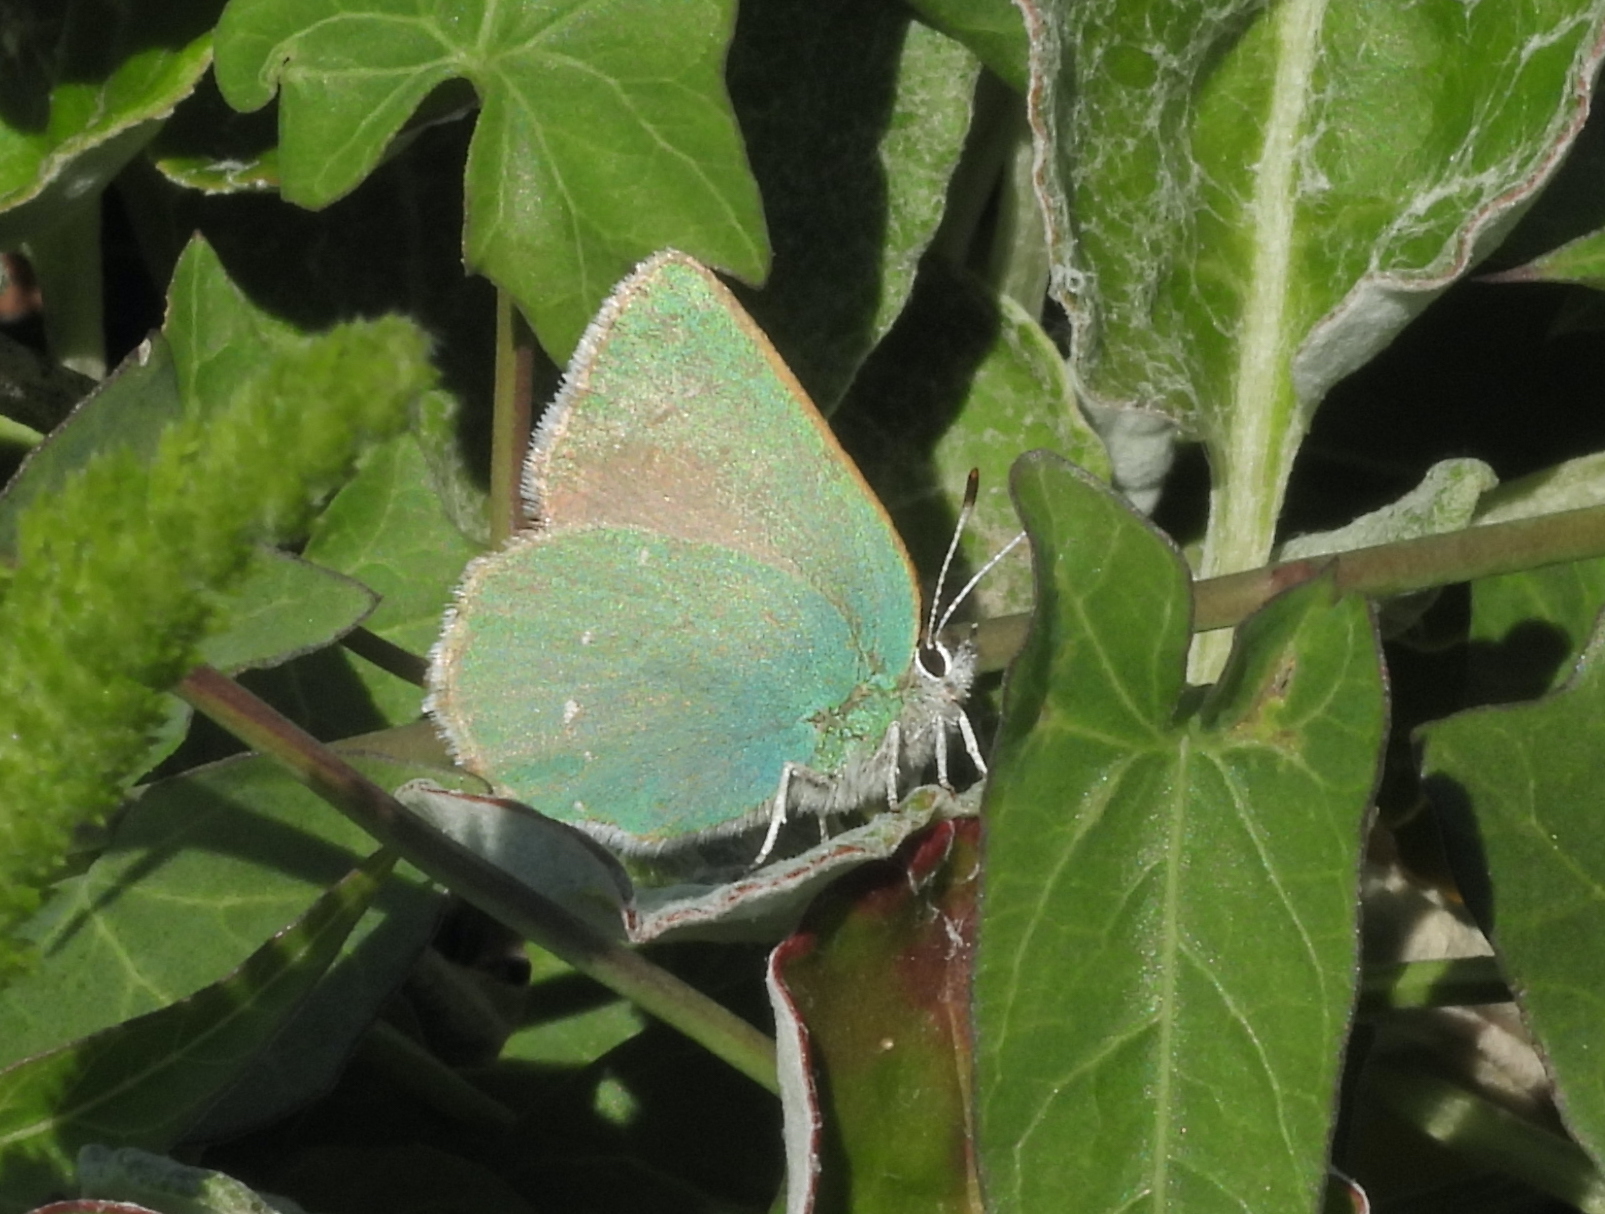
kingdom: Animalia
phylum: Arthropoda
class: Insecta
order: Lepidoptera
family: Lycaenidae
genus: Callophrys
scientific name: Callophrys viridis
